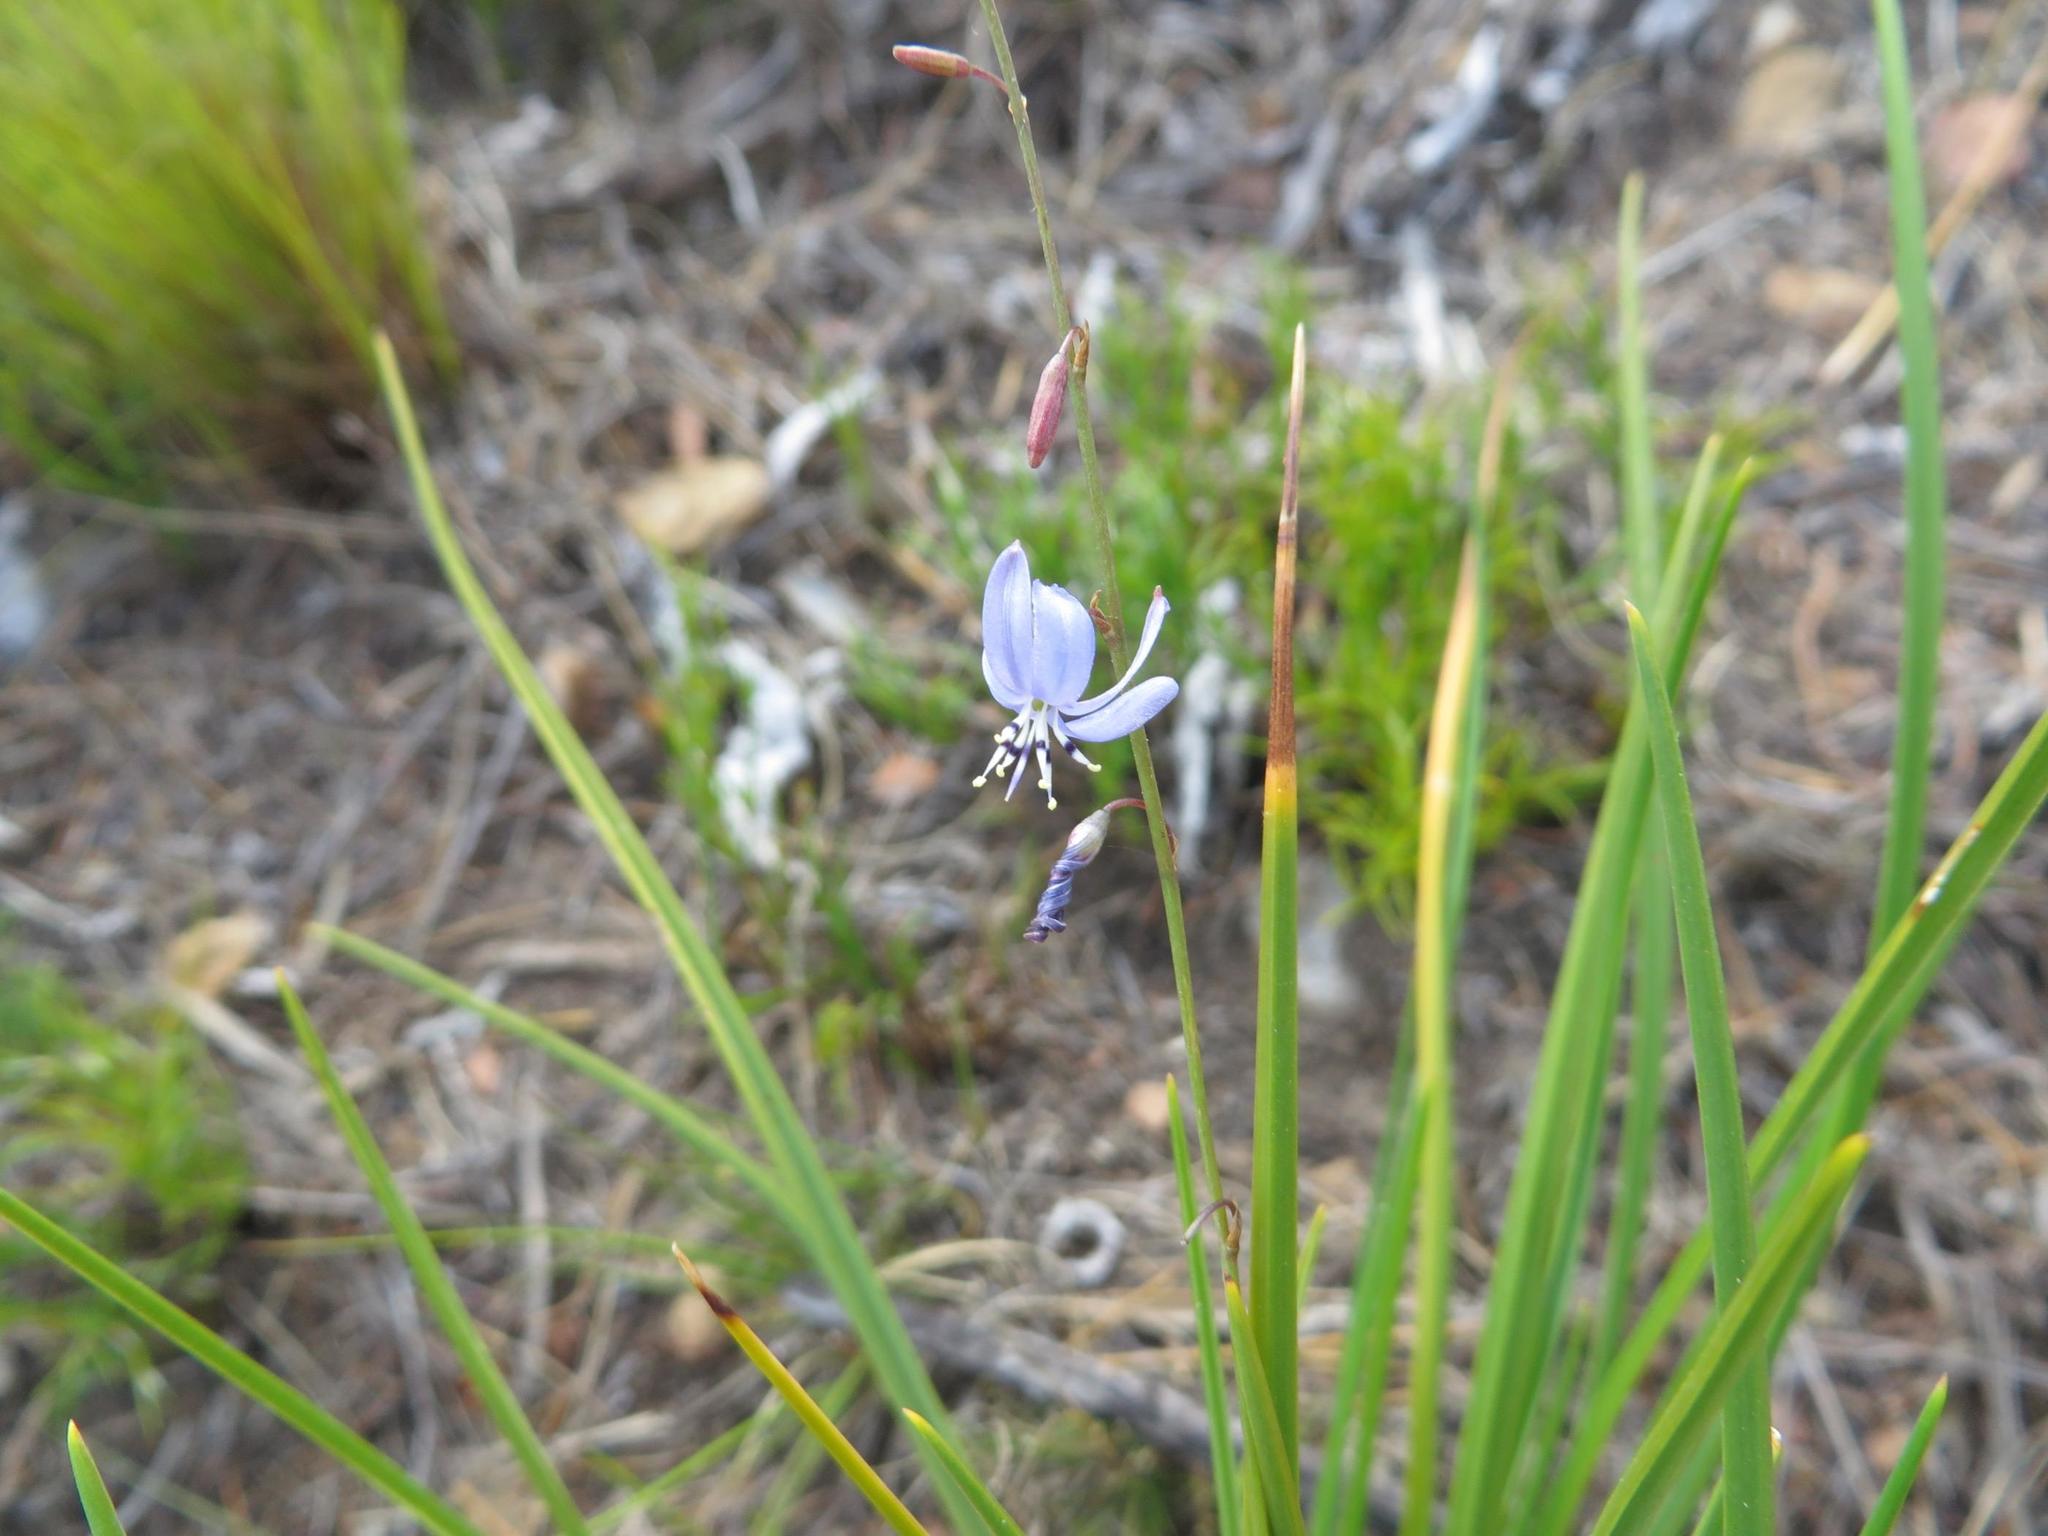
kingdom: Plantae
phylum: Tracheophyta
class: Liliopsida
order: Asparagales
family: Asphodelaceae
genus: Caesia
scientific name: Caesia contorta
